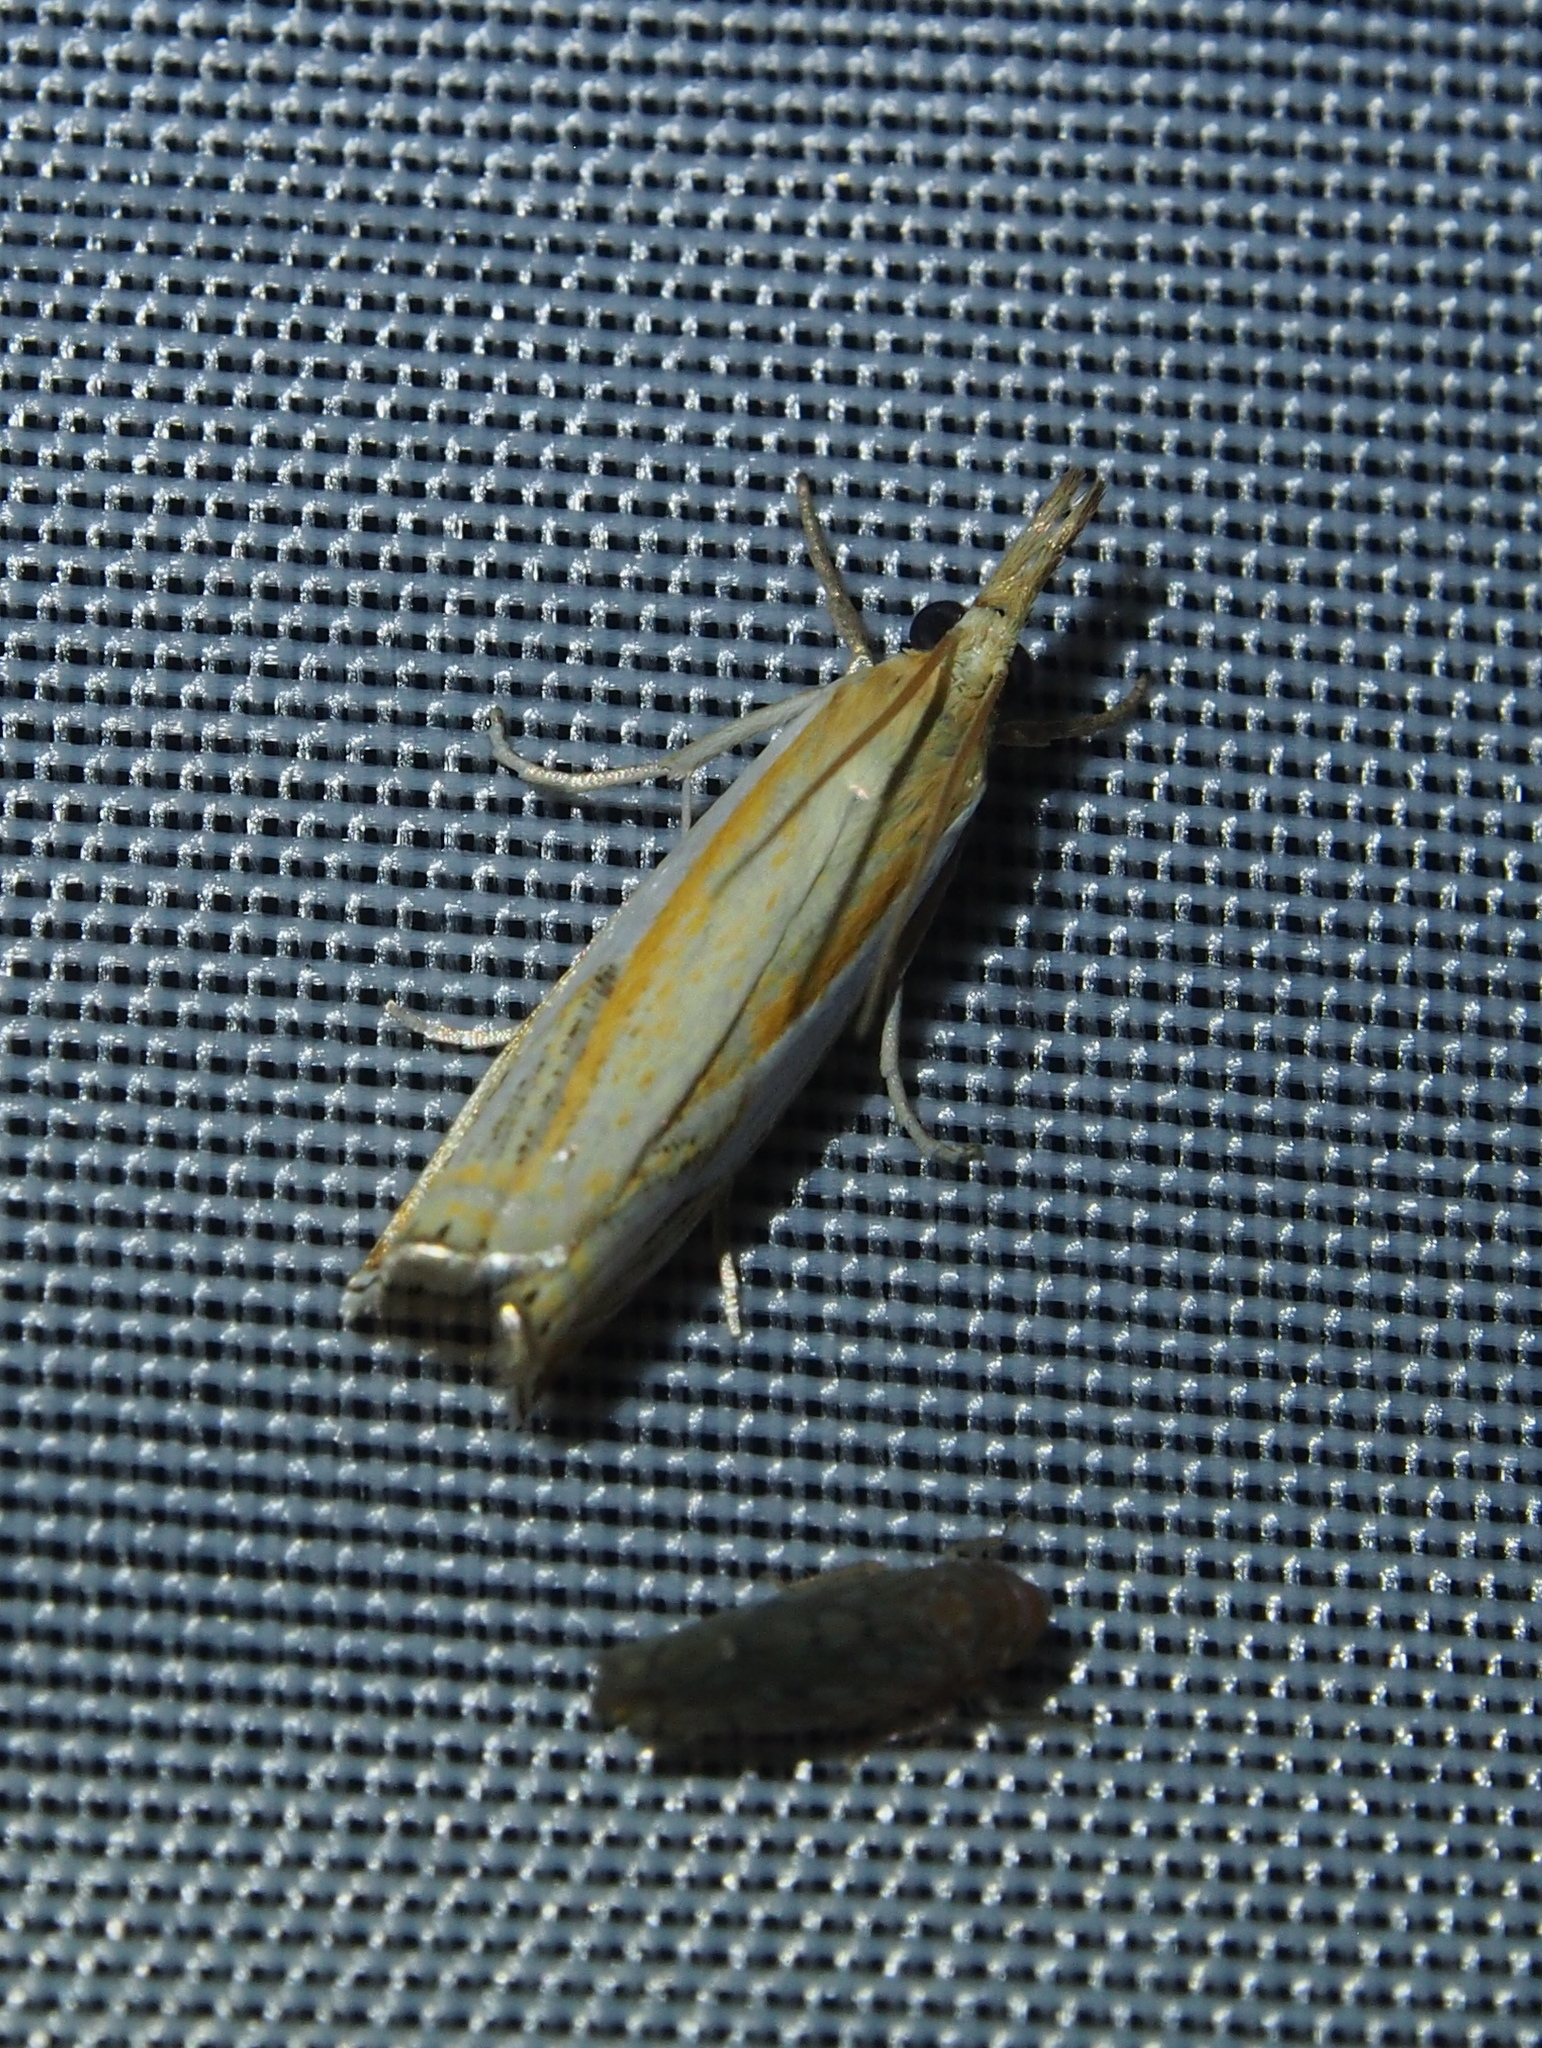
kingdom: Animalia
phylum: Arthropoda
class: Insecta
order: Lepidoptera
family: Crambidae
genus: Crambus
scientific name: Crambus agitatellus
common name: Double-banded grass-veneer
